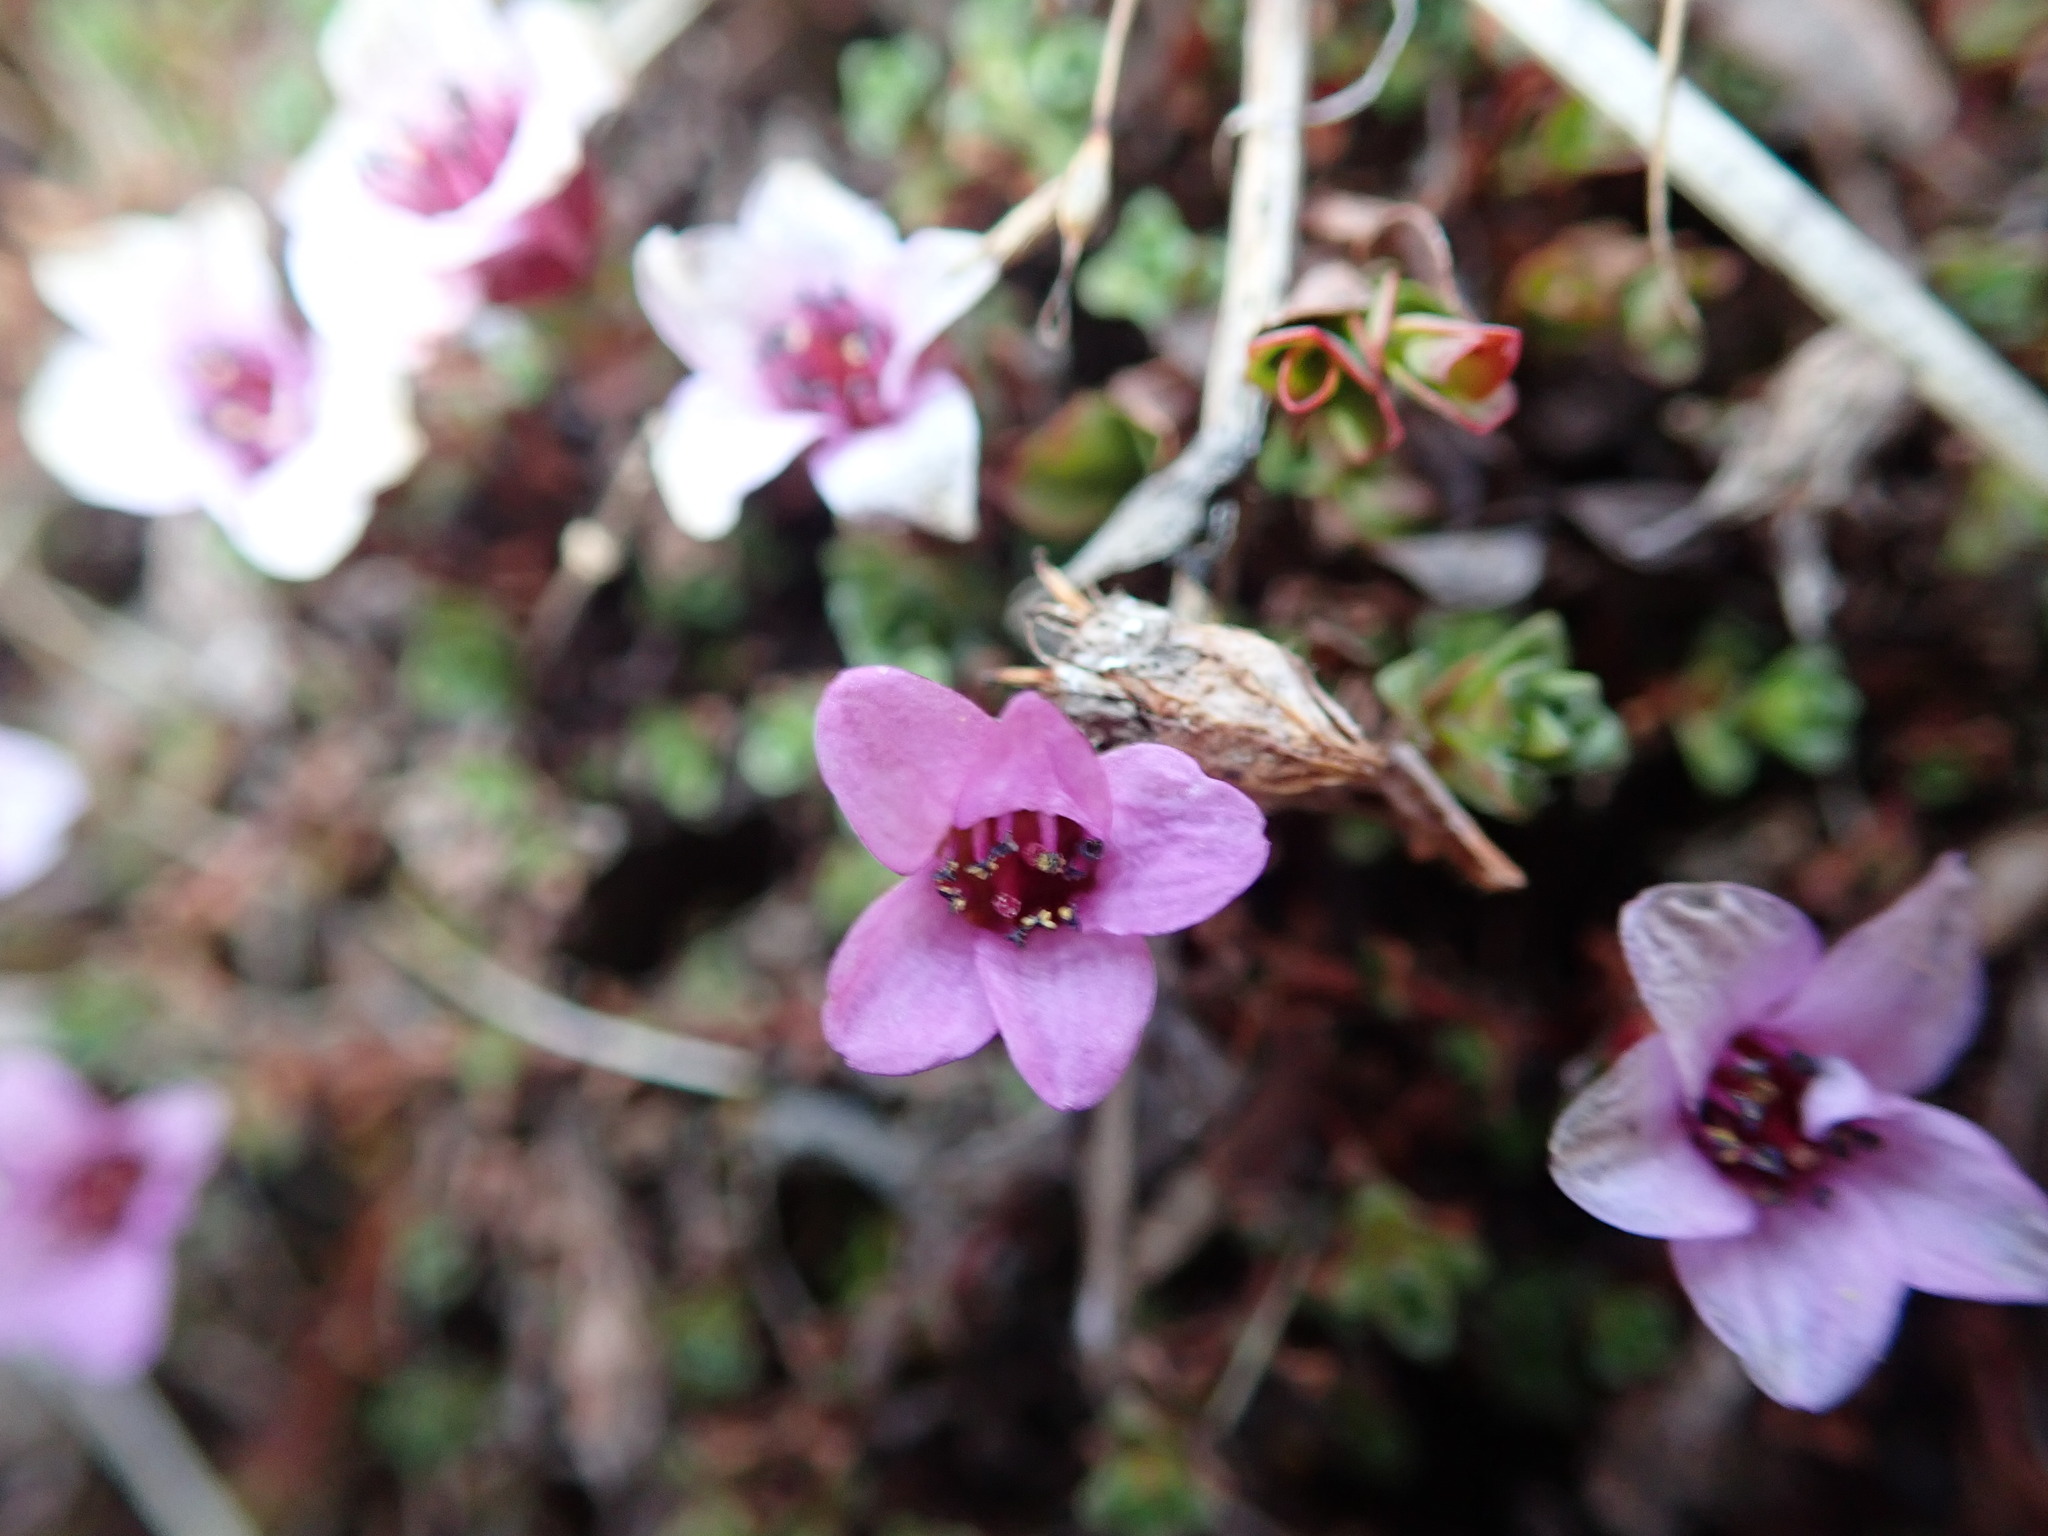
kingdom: Plantae
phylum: Tracheophyta
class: Magnoliopsida
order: Saxifragales
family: Saxifragaceae
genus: Saxifraga
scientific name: Saxifraga oppositifolia
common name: Purple saxifrage
